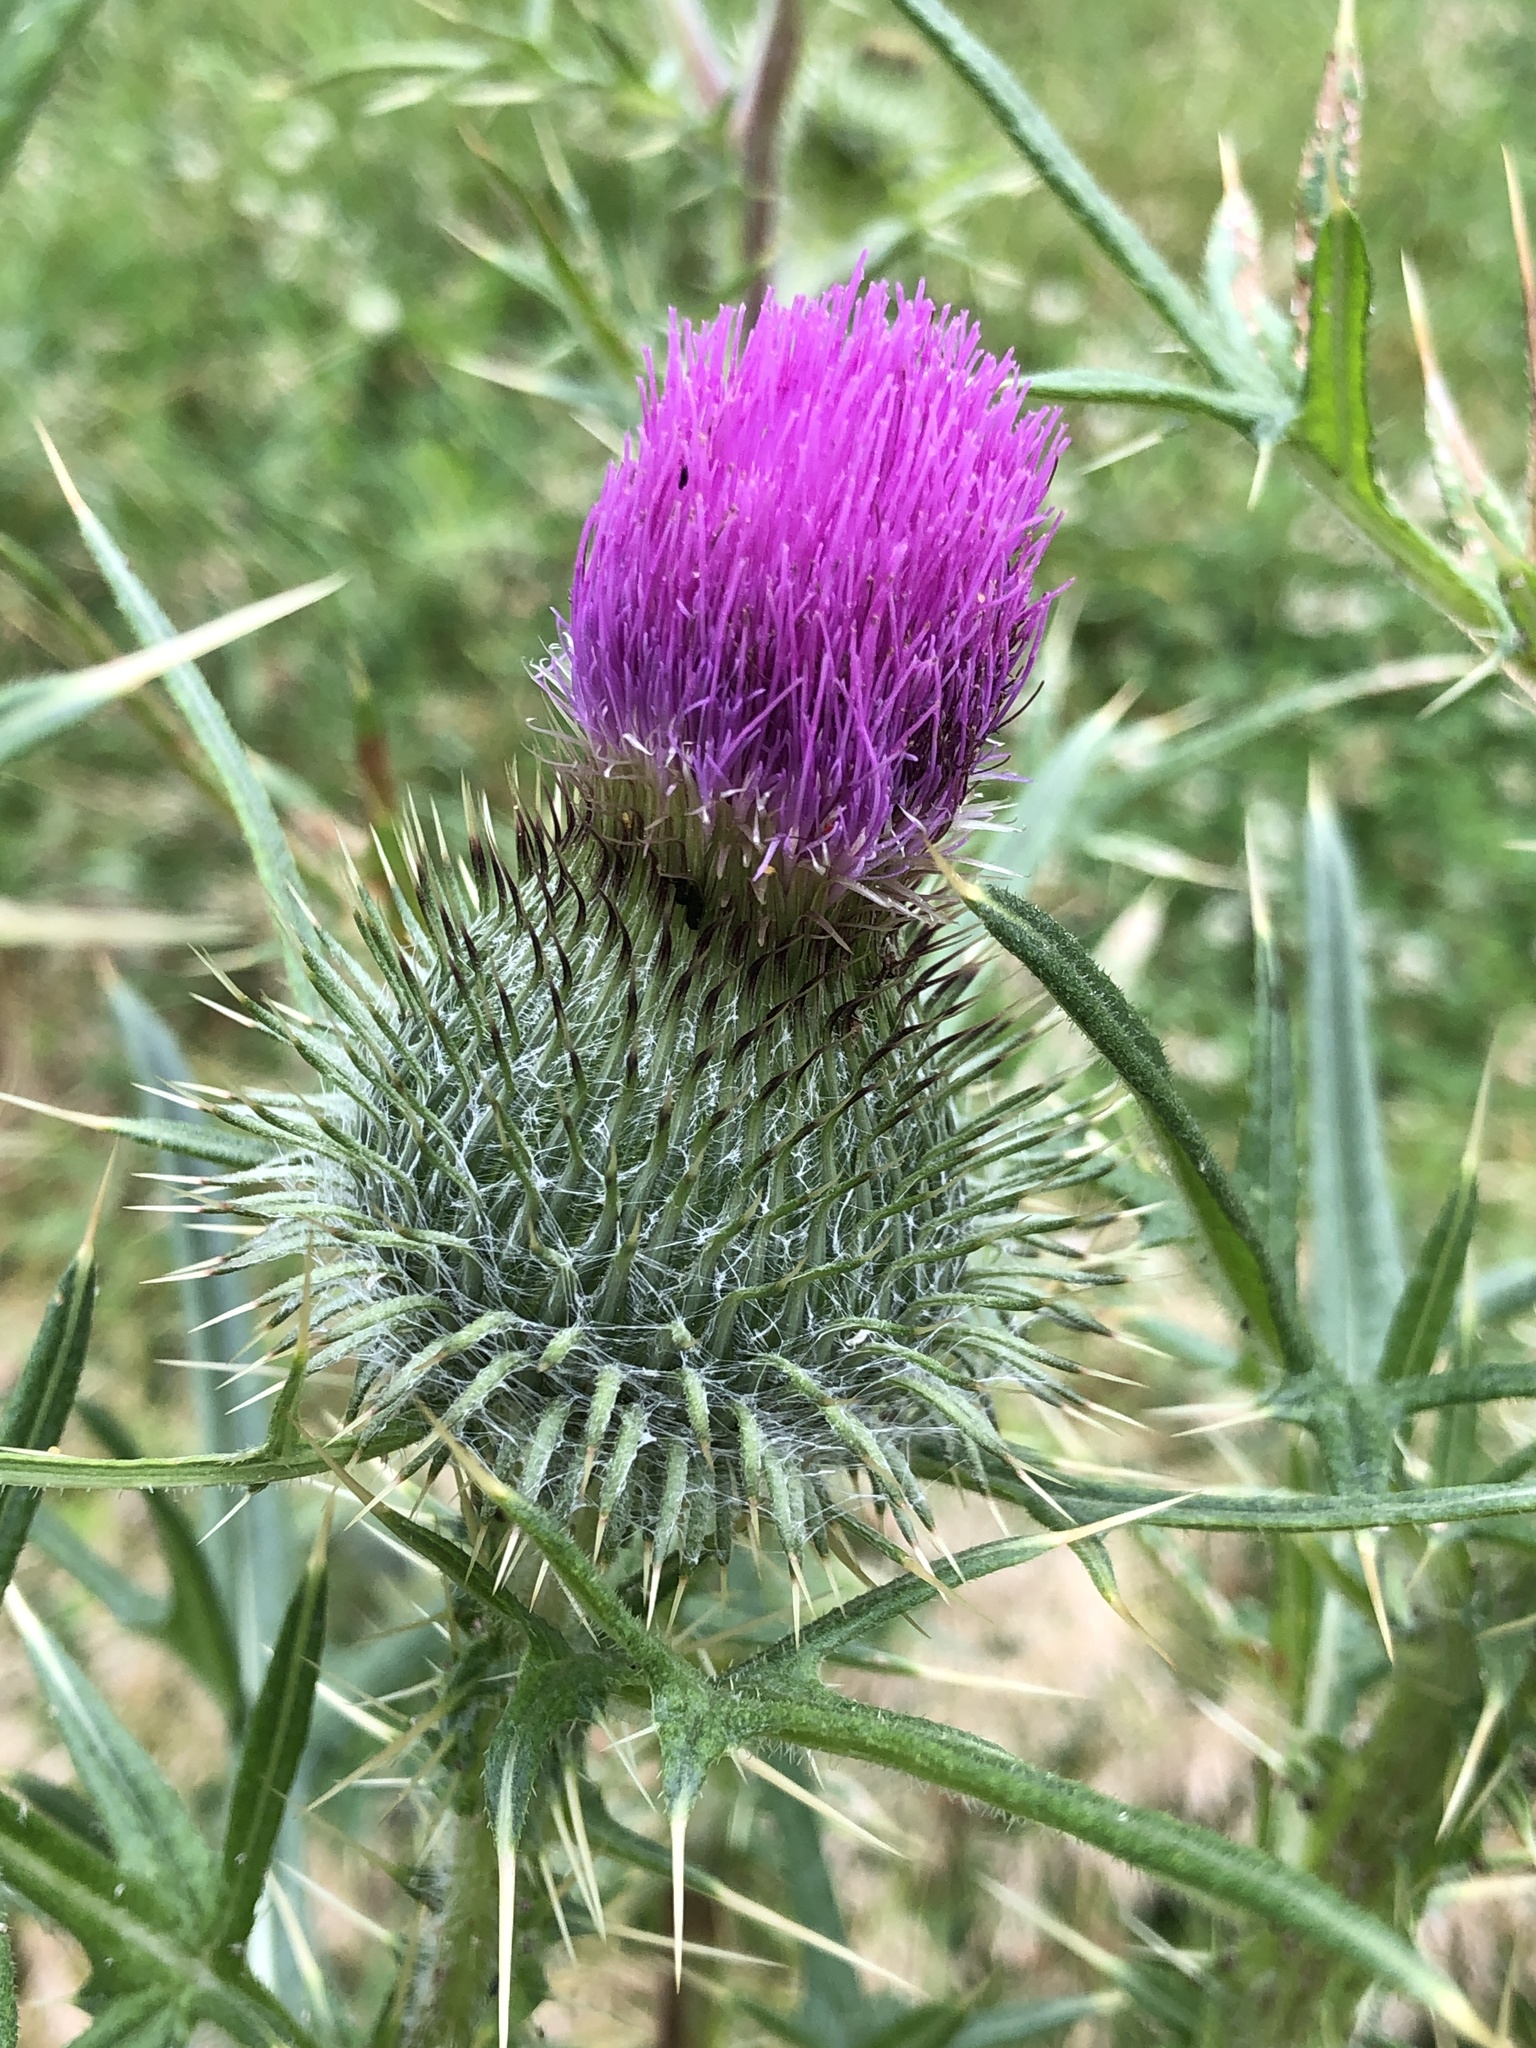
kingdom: Plantae
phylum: Tracheophyta
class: Magnoliopsida
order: Asterales
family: Asteraceae
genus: Cirsium
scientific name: Cirsium vulgare
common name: Bull thistle
